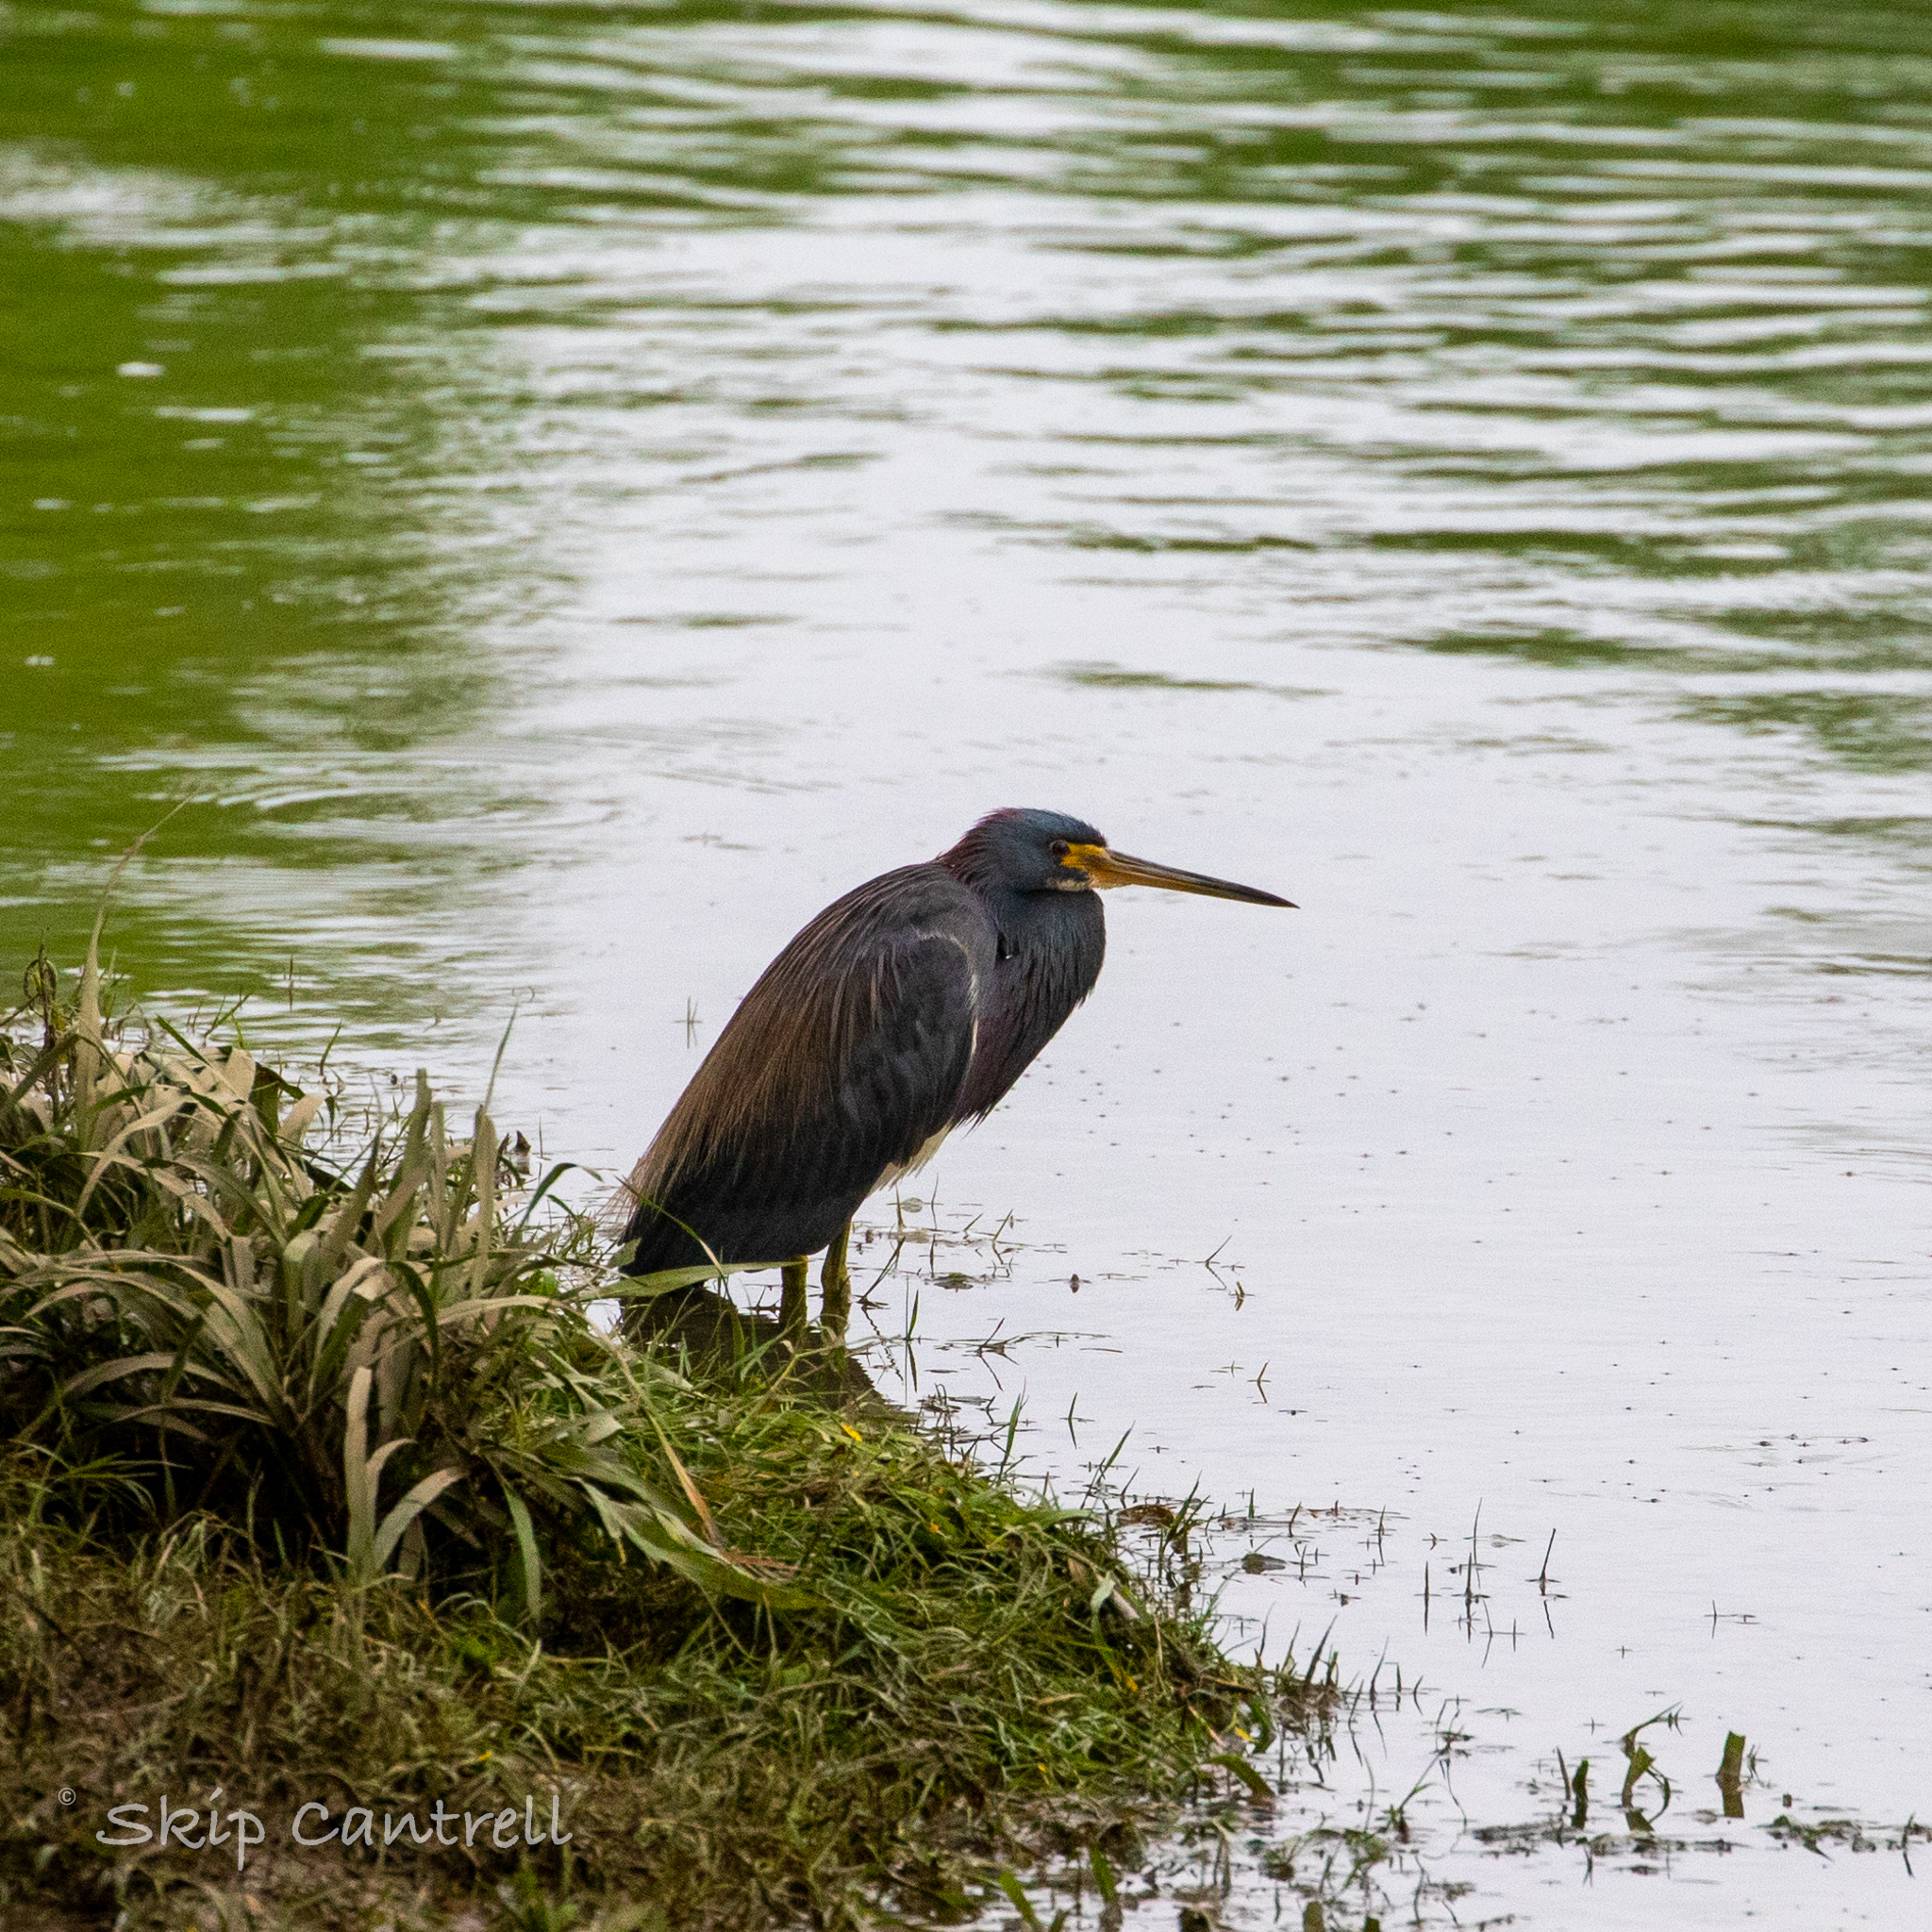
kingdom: Animalia
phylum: Chordata
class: Aves
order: Pelecaniformes
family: Ardeidae
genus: Egretta
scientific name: Egretta tricolor
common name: Tricolored heron
